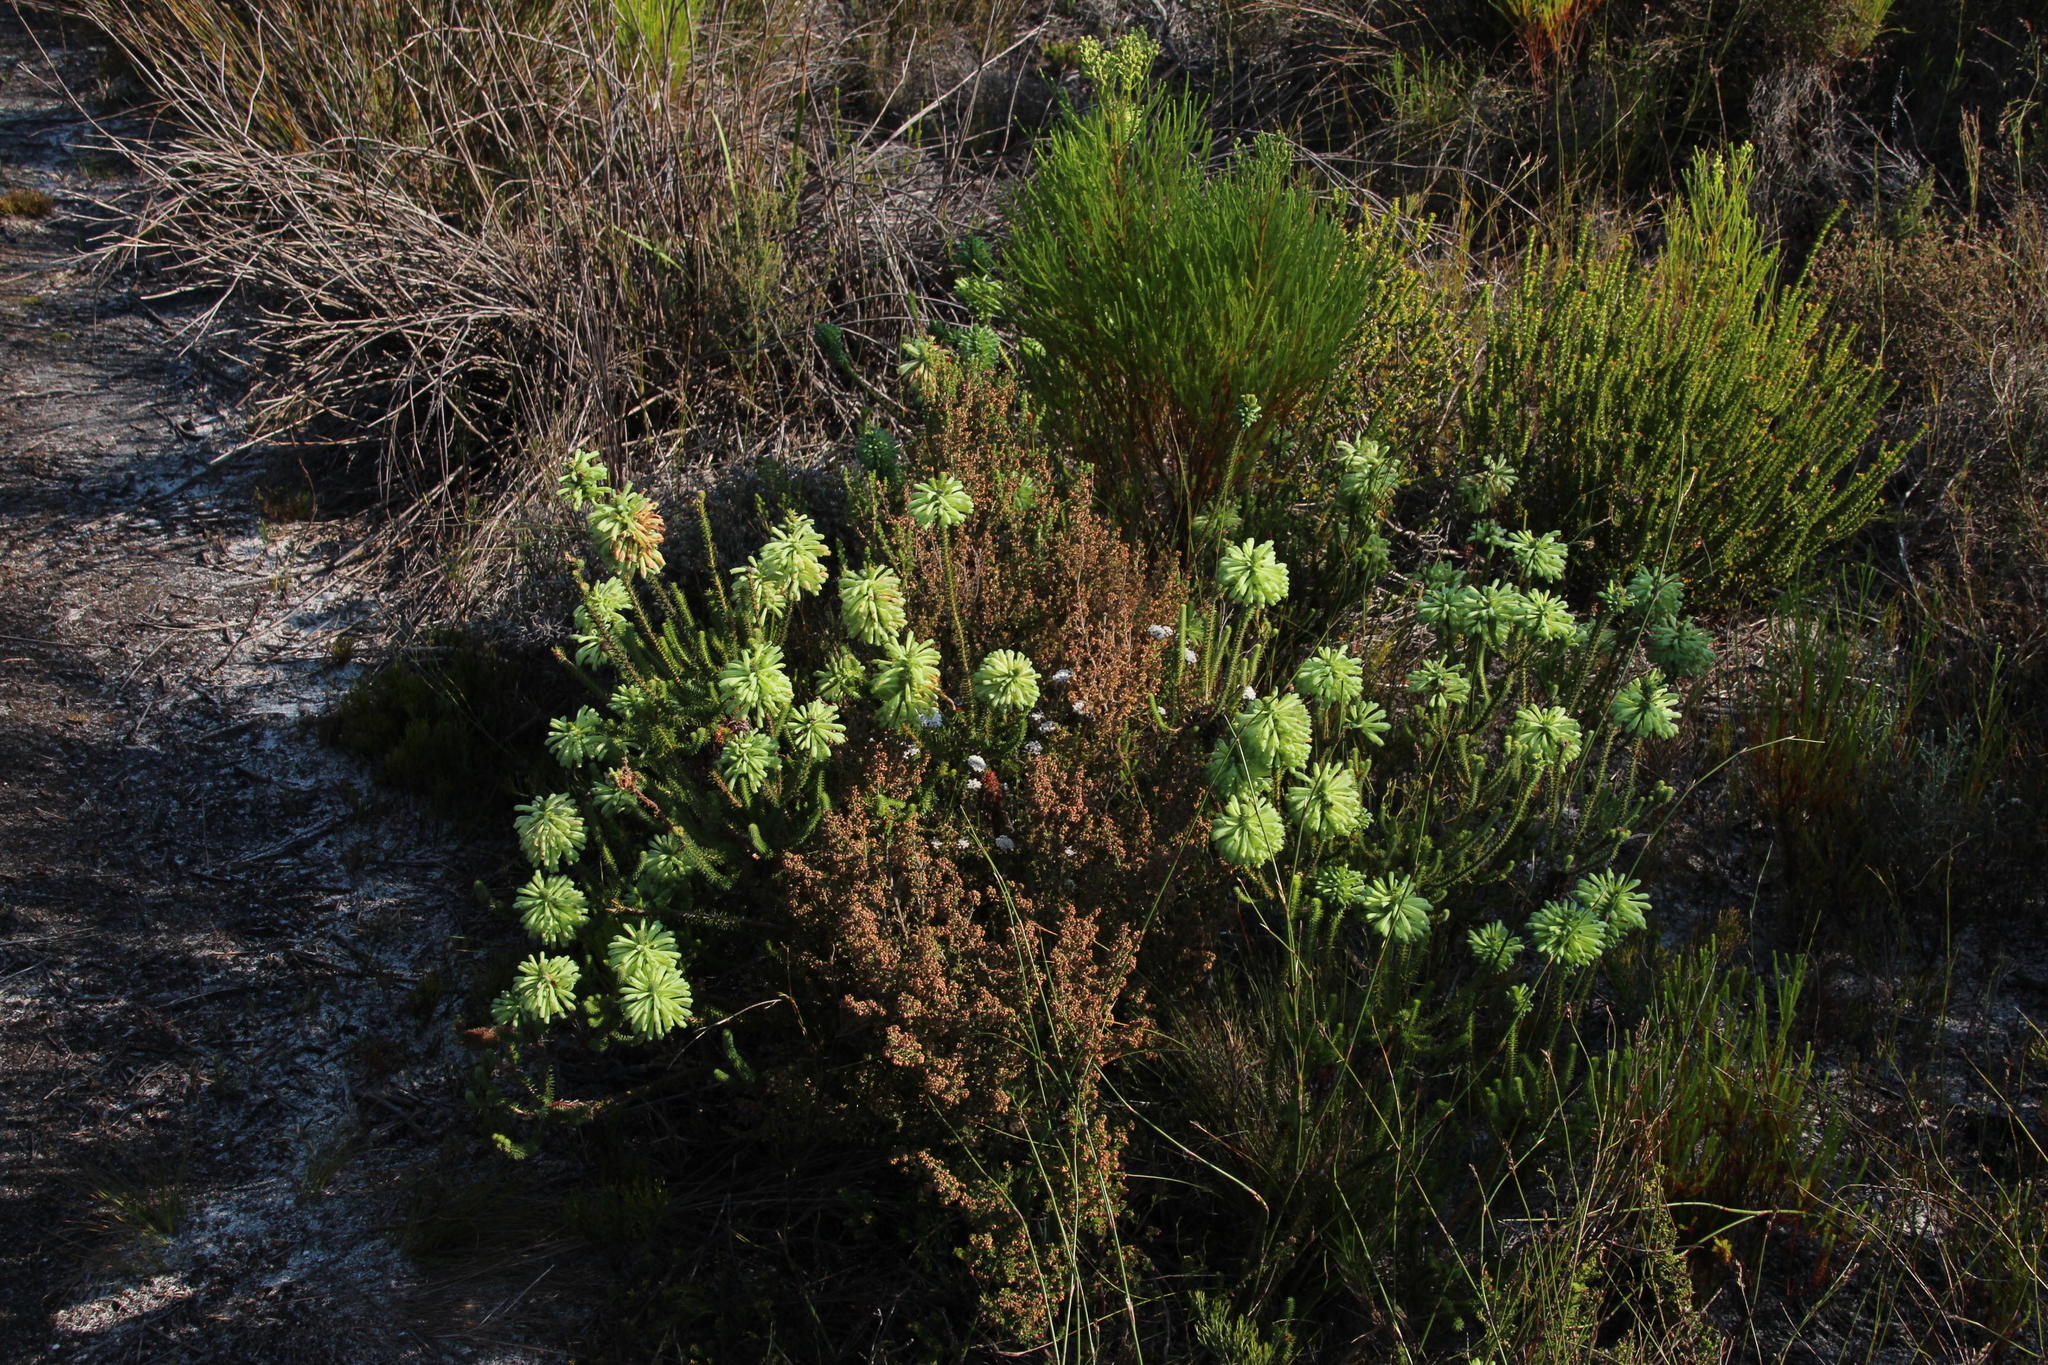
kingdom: Plantae
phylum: Tracheophyta
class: Magnoliopsida
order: Ericales
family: Ericaceae
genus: Erica
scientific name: Erica sessiliflora
